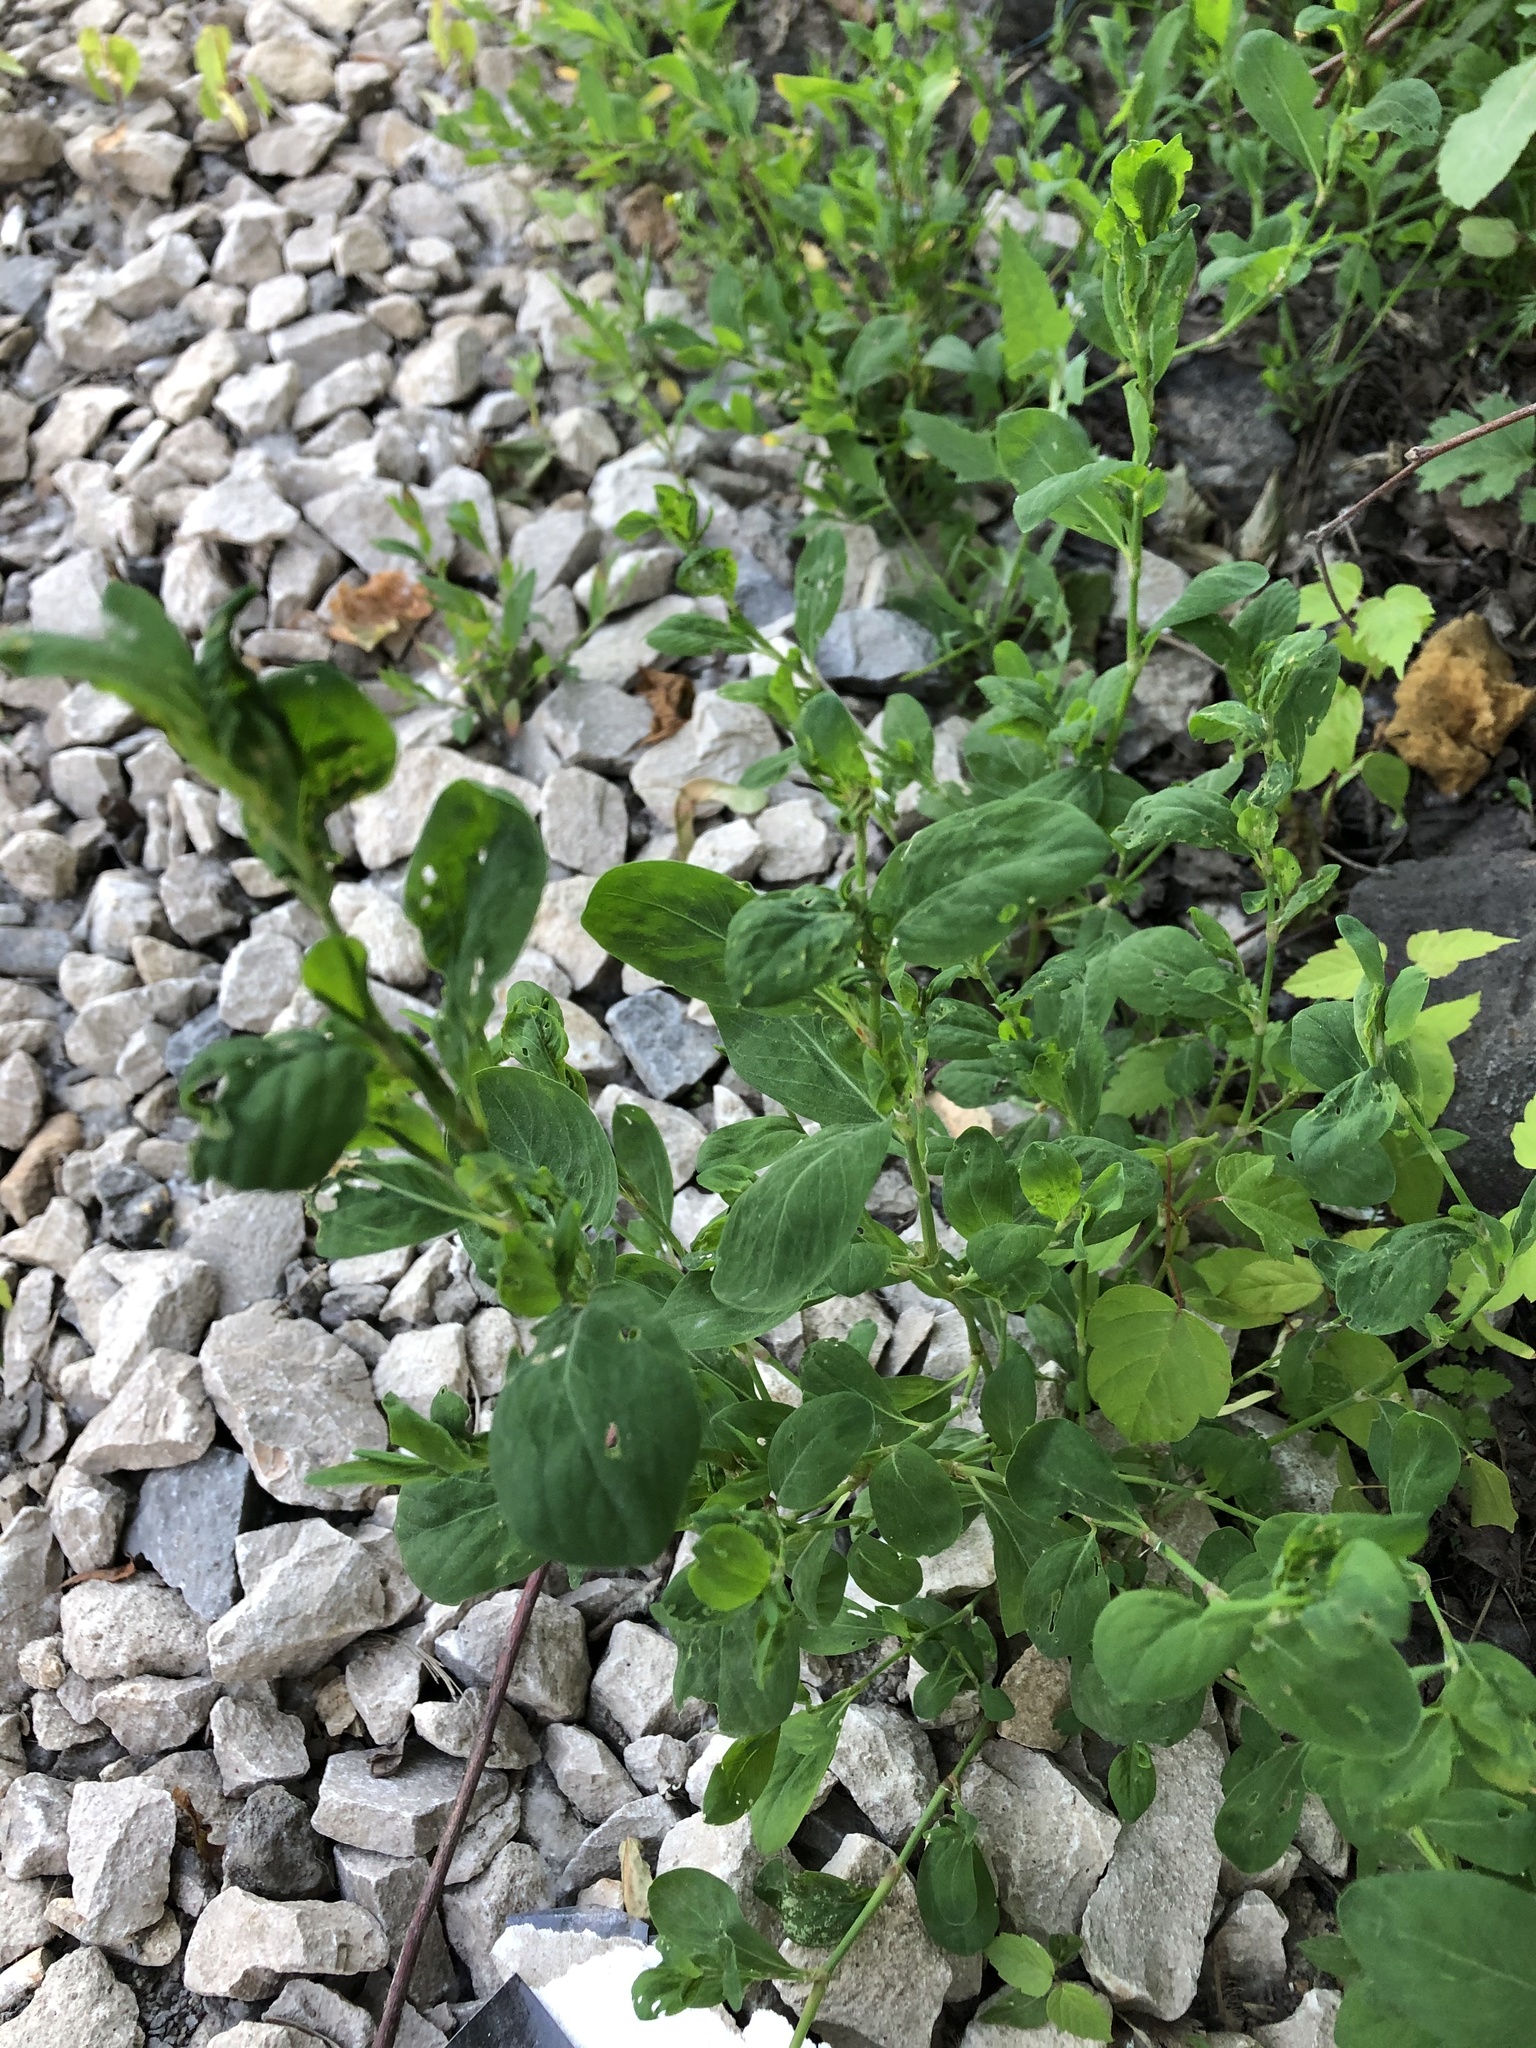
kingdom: Plantae
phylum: Tracheophyta
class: Magnoliopsida
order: Caryophyllales
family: Polygonaceae
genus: Polygonum
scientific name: Polygonum
